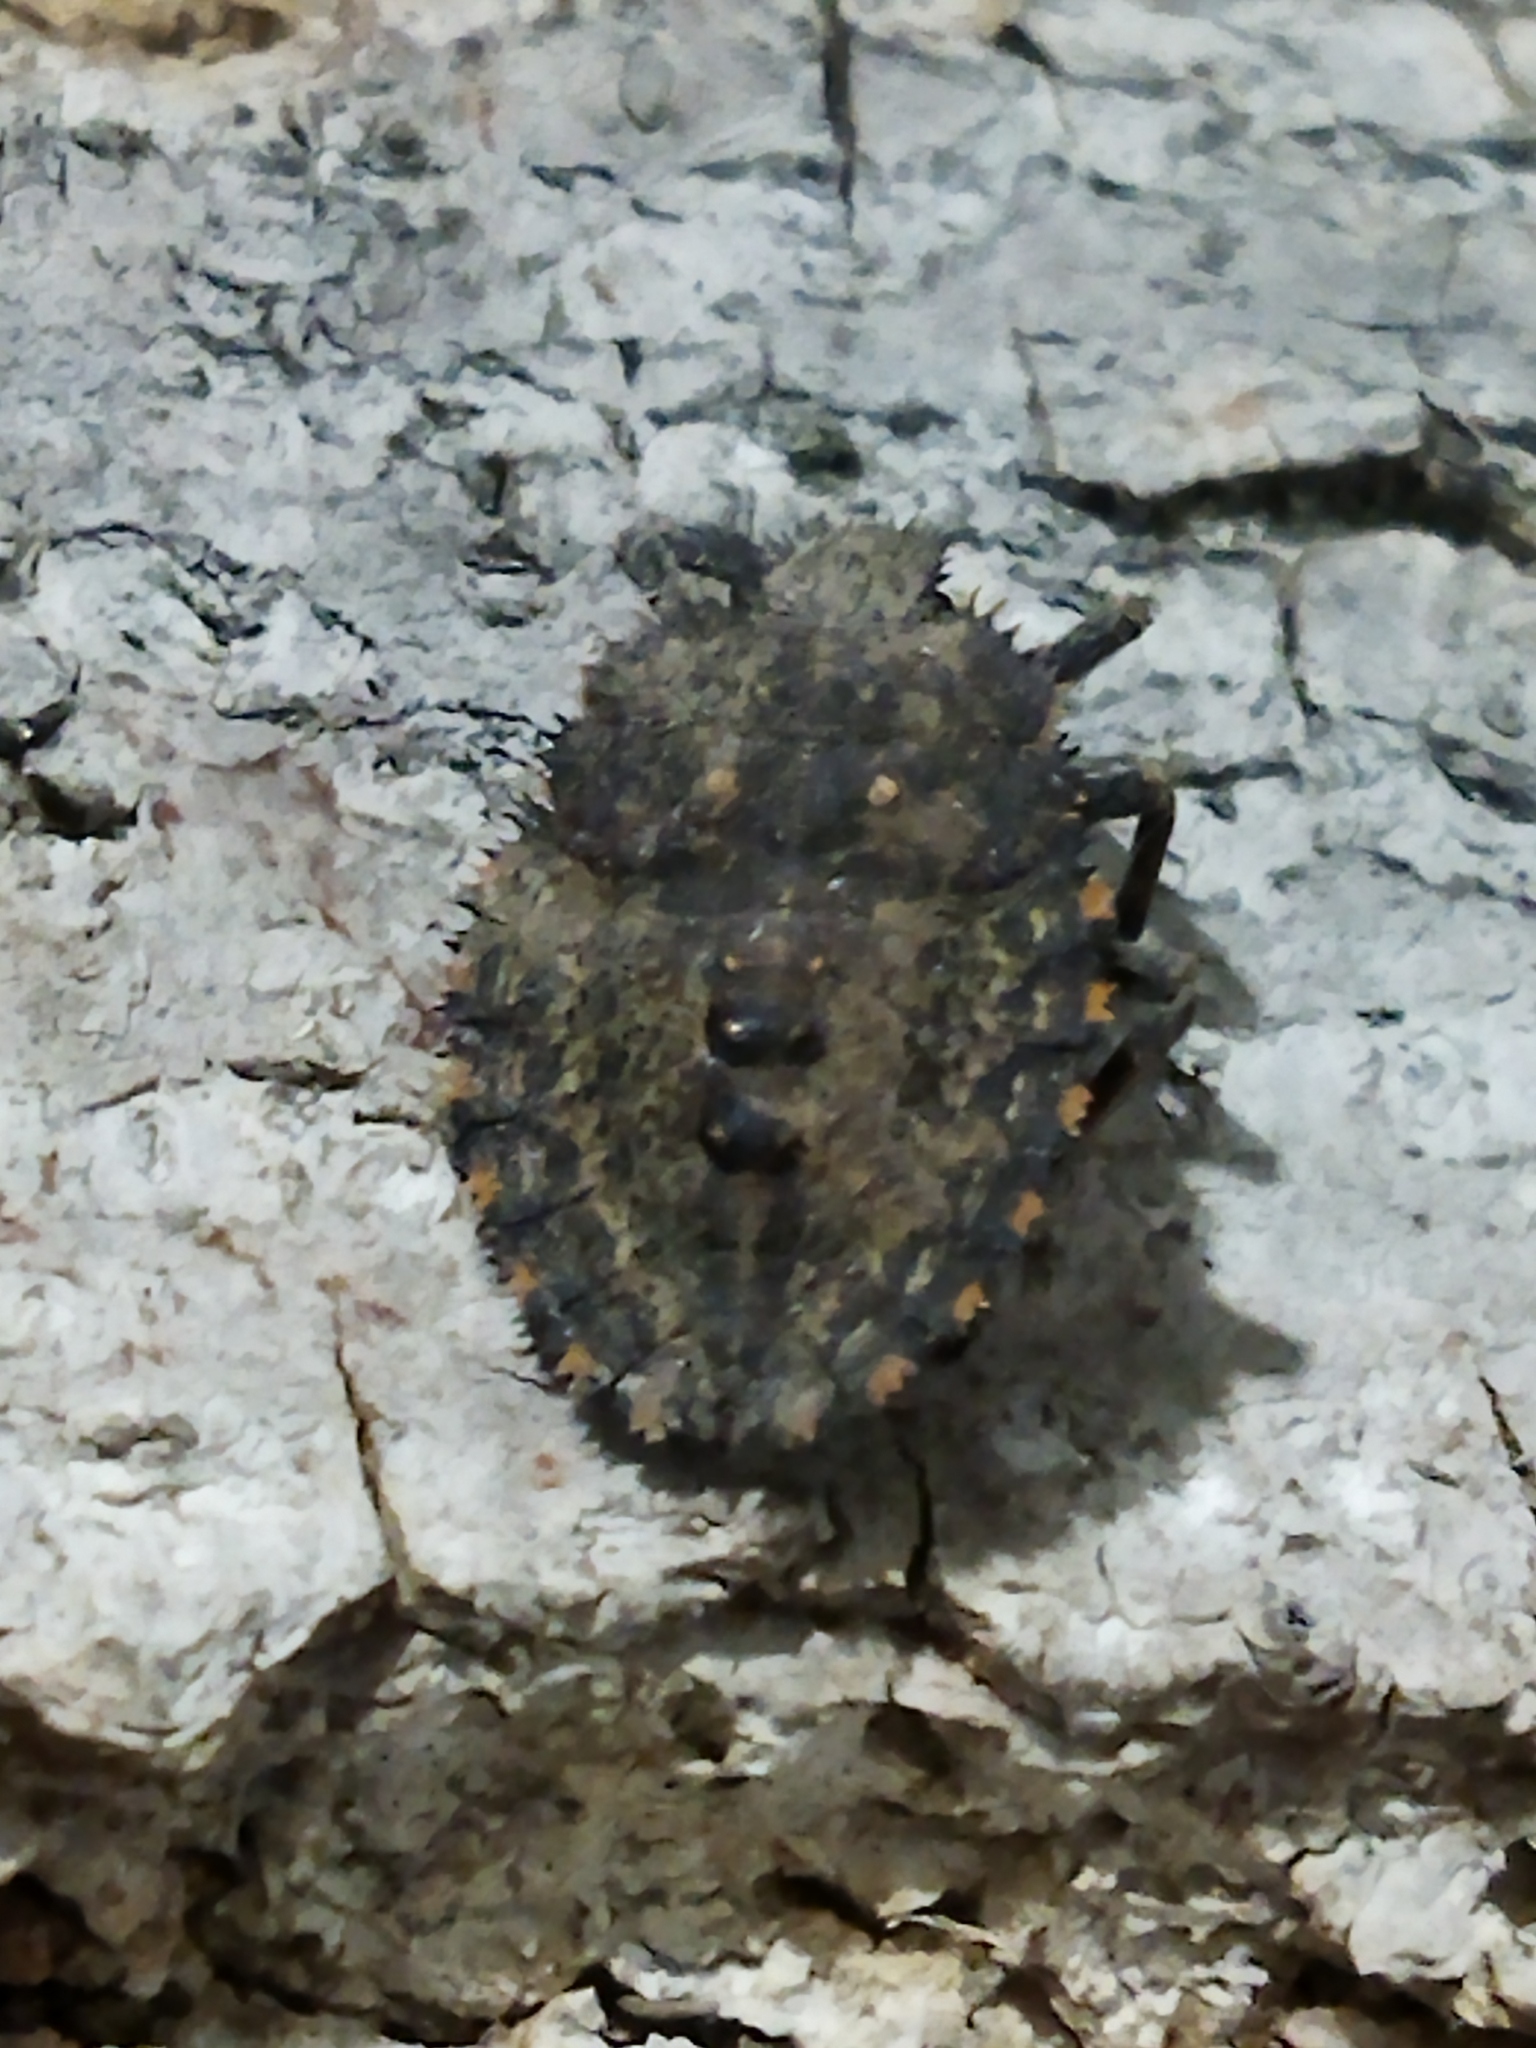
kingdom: Animalia
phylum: Arthropoda
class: Insecta
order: Hemiptera
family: Pentatomidae
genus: Mustha
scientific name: Mustha spinosula
